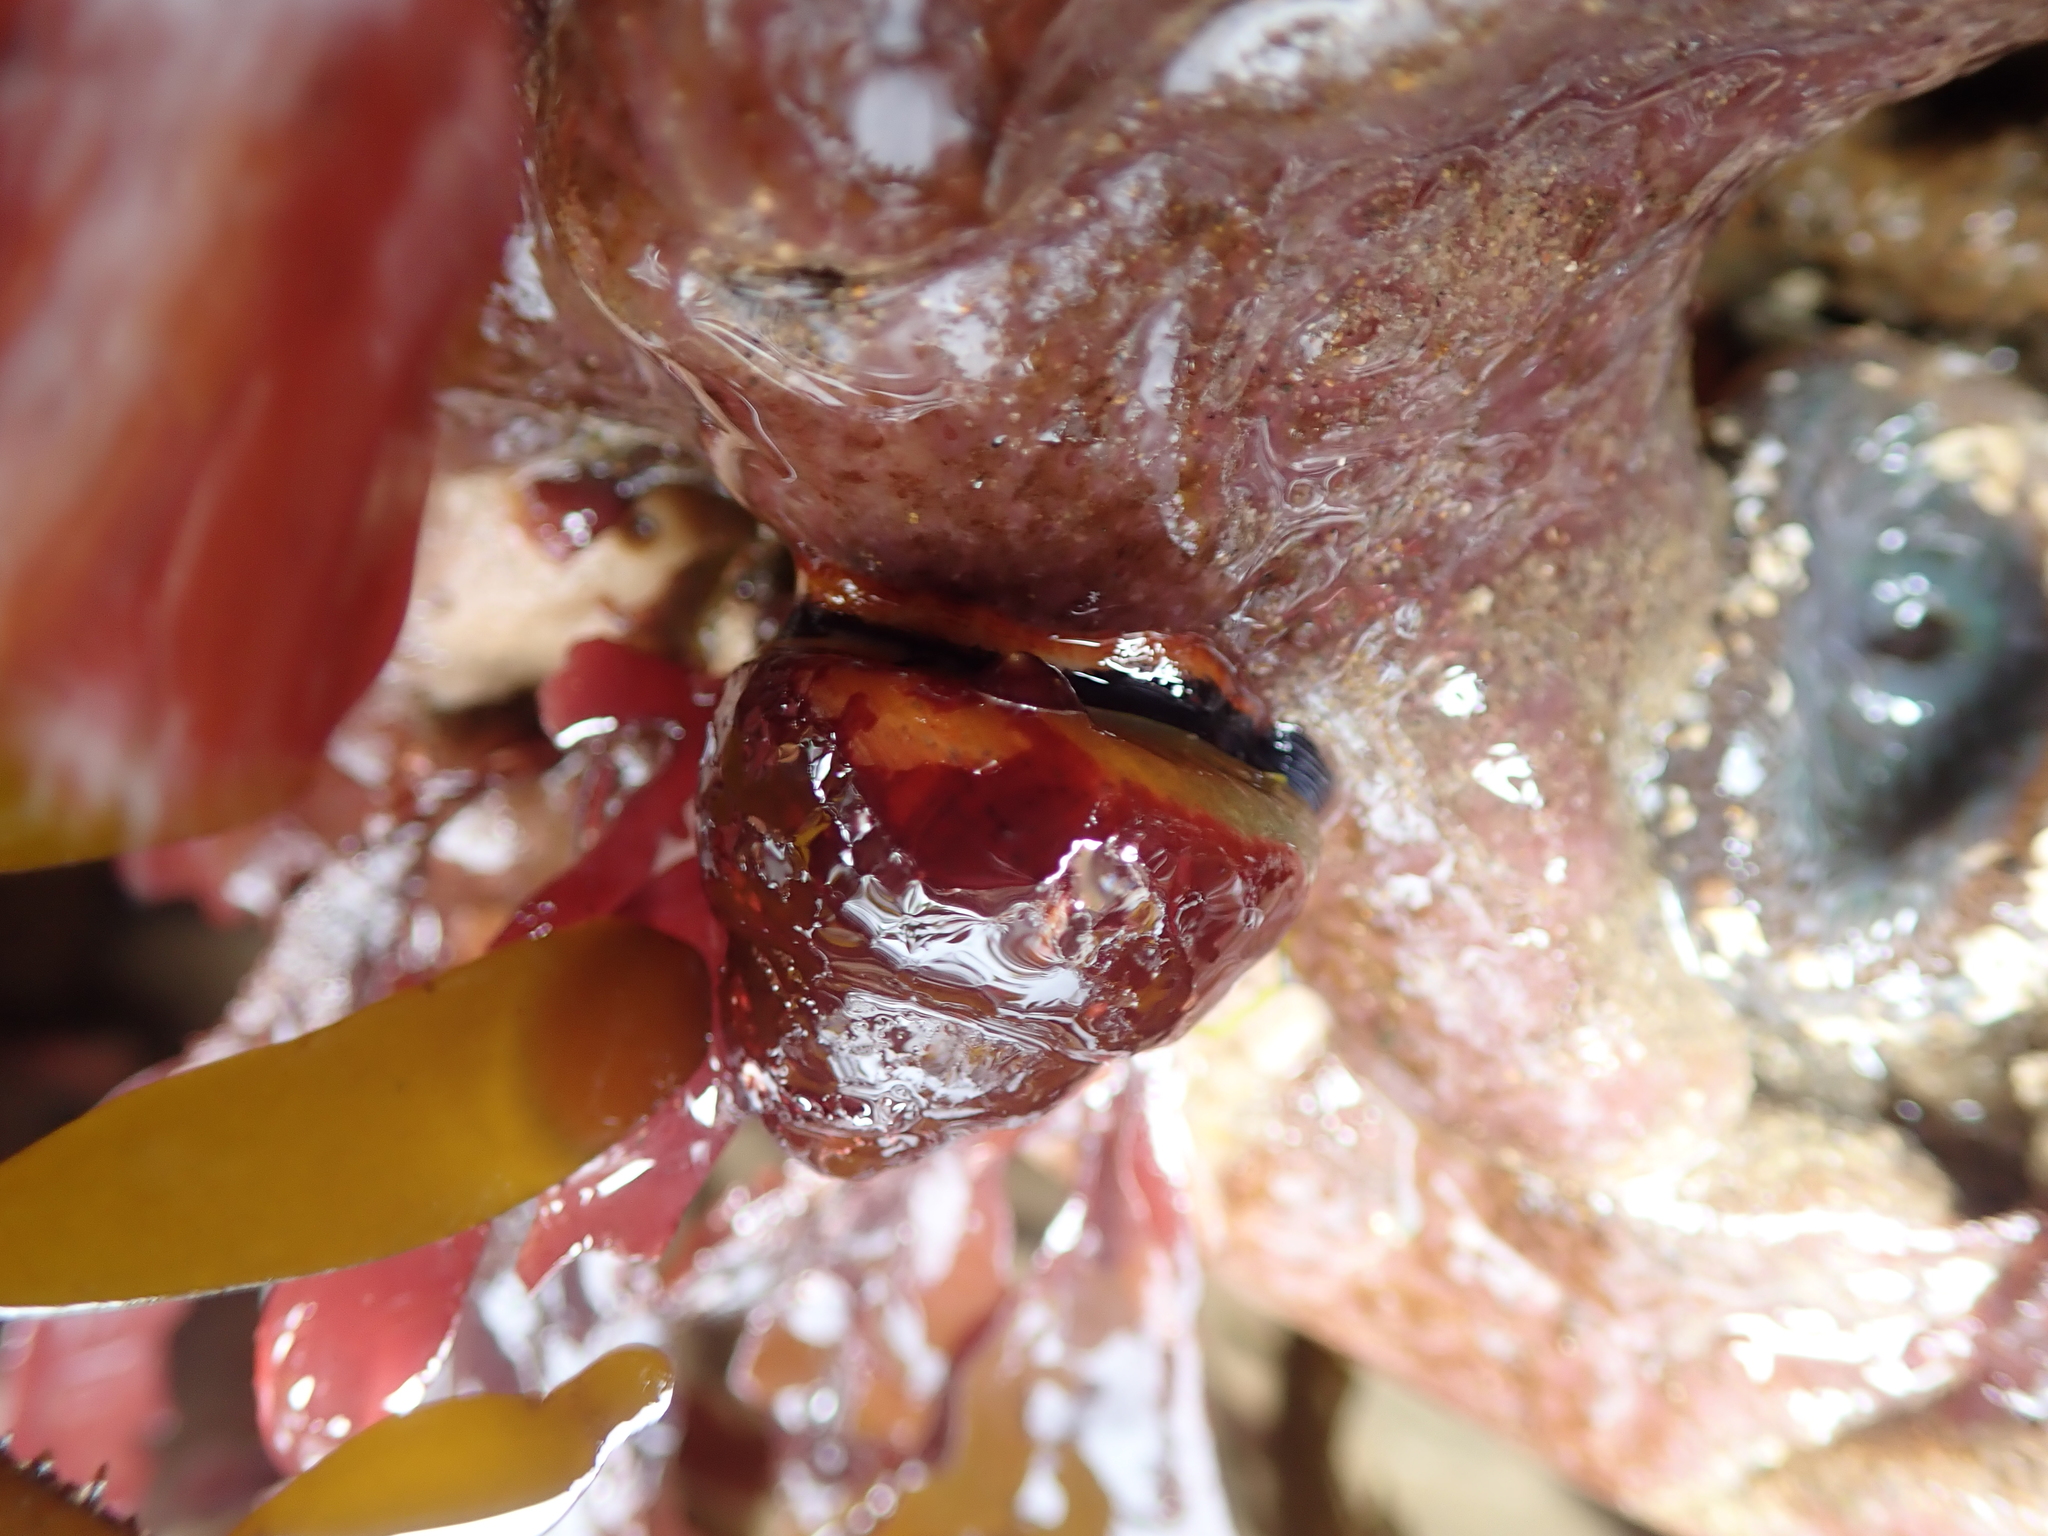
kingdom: Animalia
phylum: Mollusca
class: Gastropoda
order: Trochida
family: Tegulidae
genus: Tegula
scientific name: Tegula brunnea
